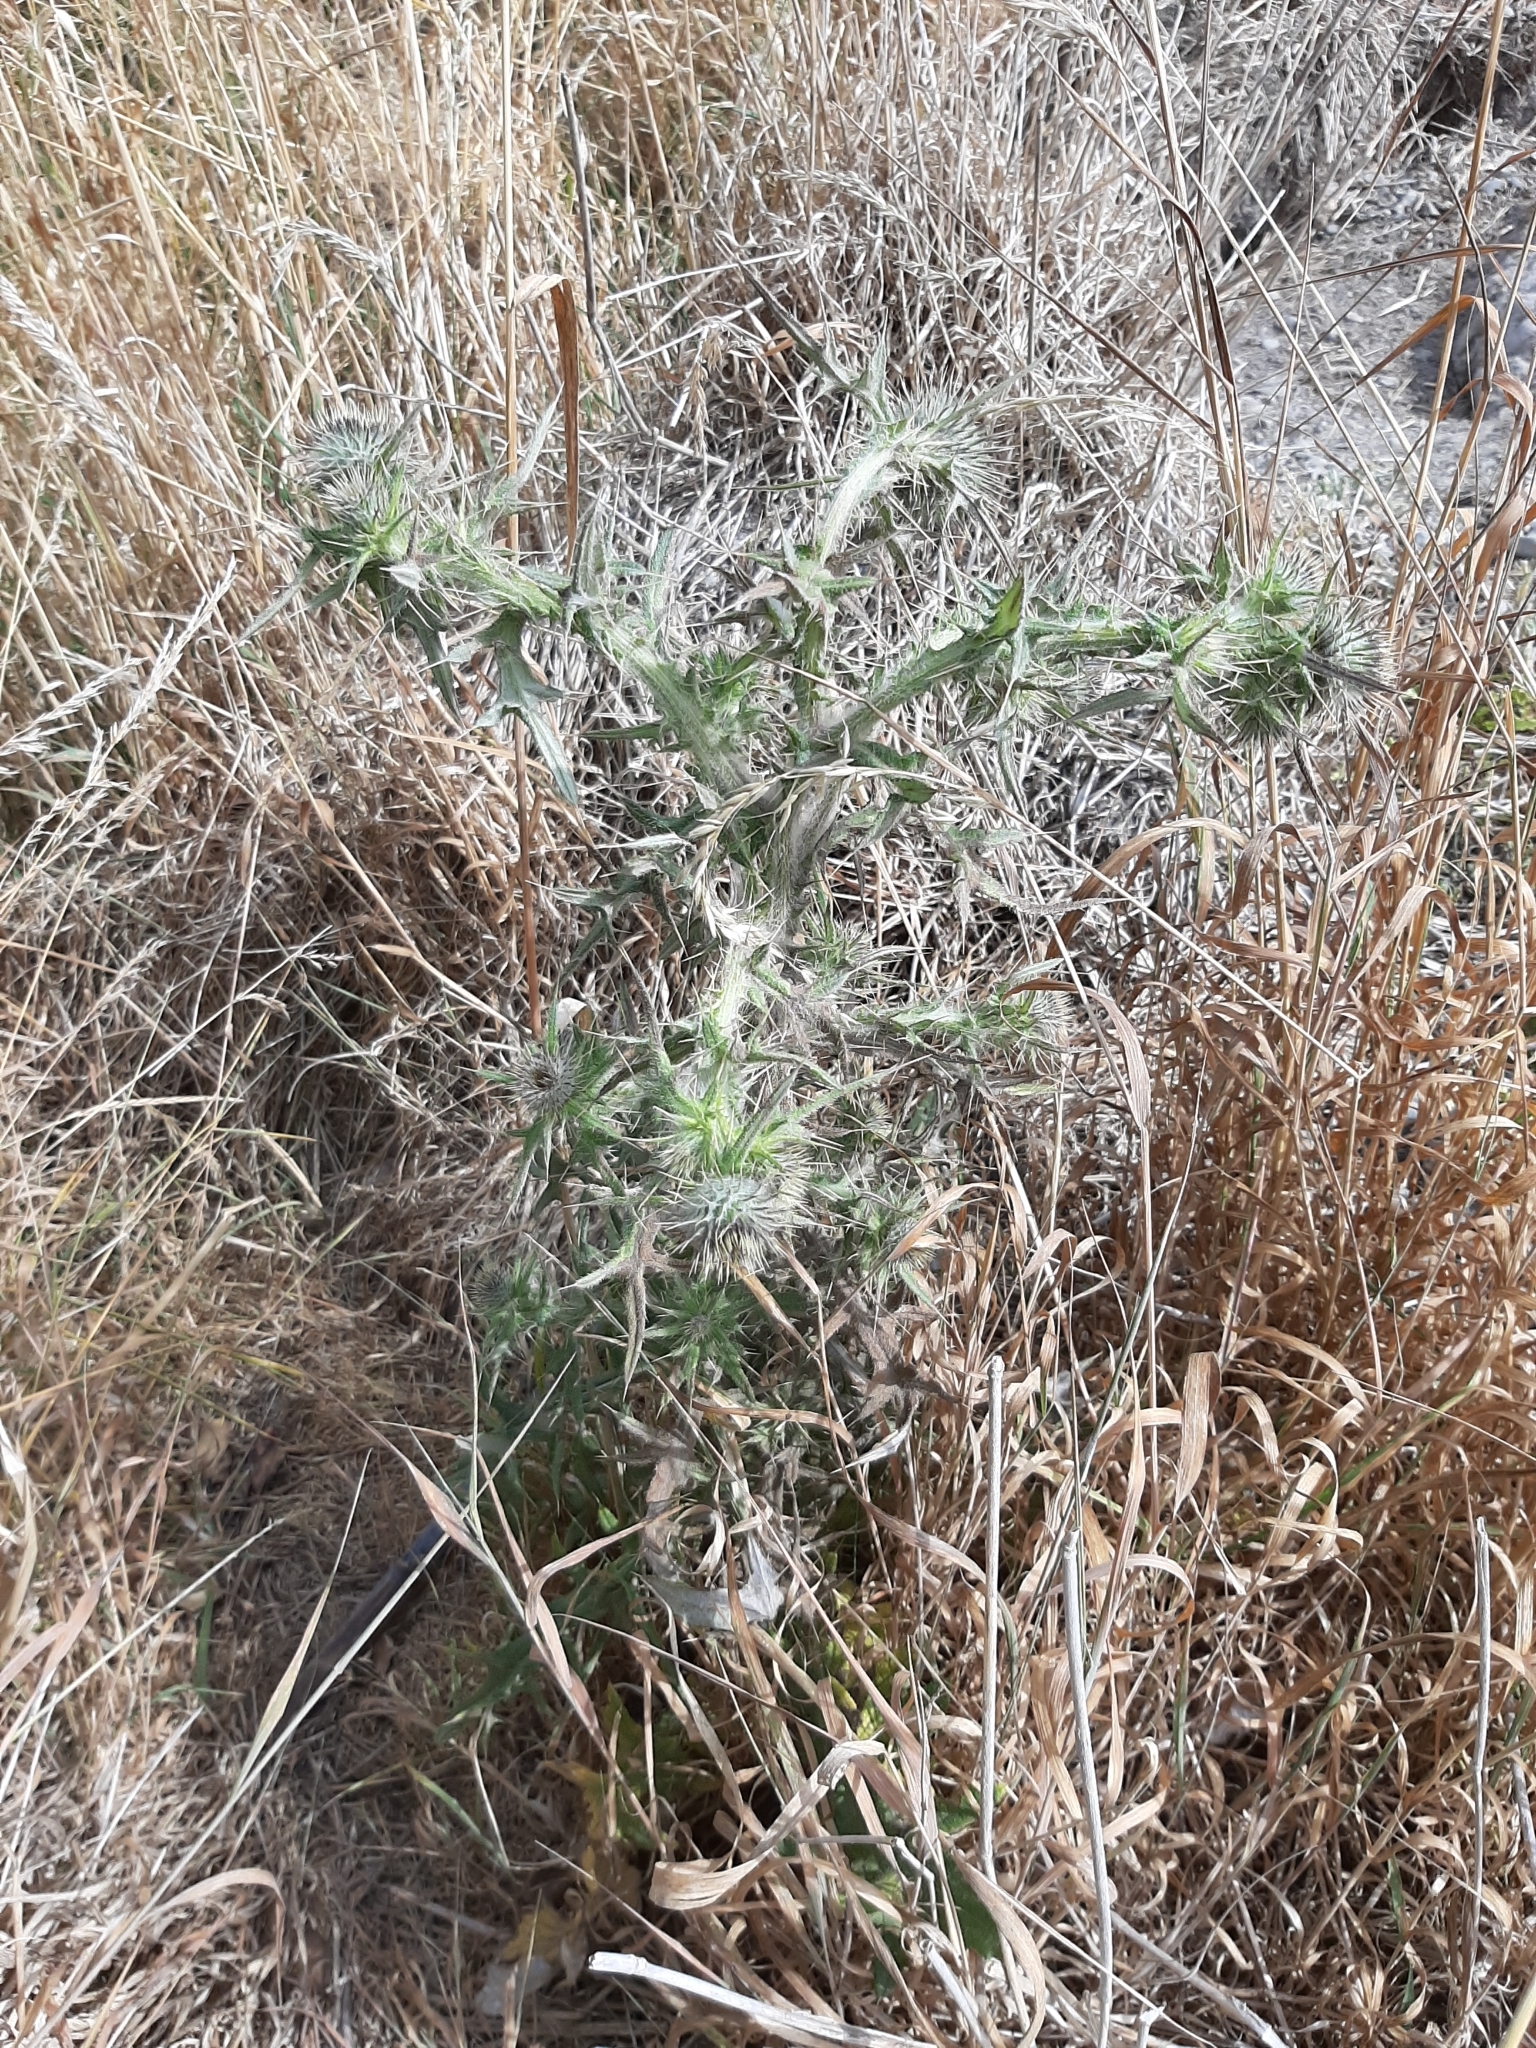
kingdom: Plantae
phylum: Tracheophyta
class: Magnoliopsida
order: Asterales
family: Asteraceae
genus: Cirsium
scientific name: Cirsium vulgare
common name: Bull thistle
